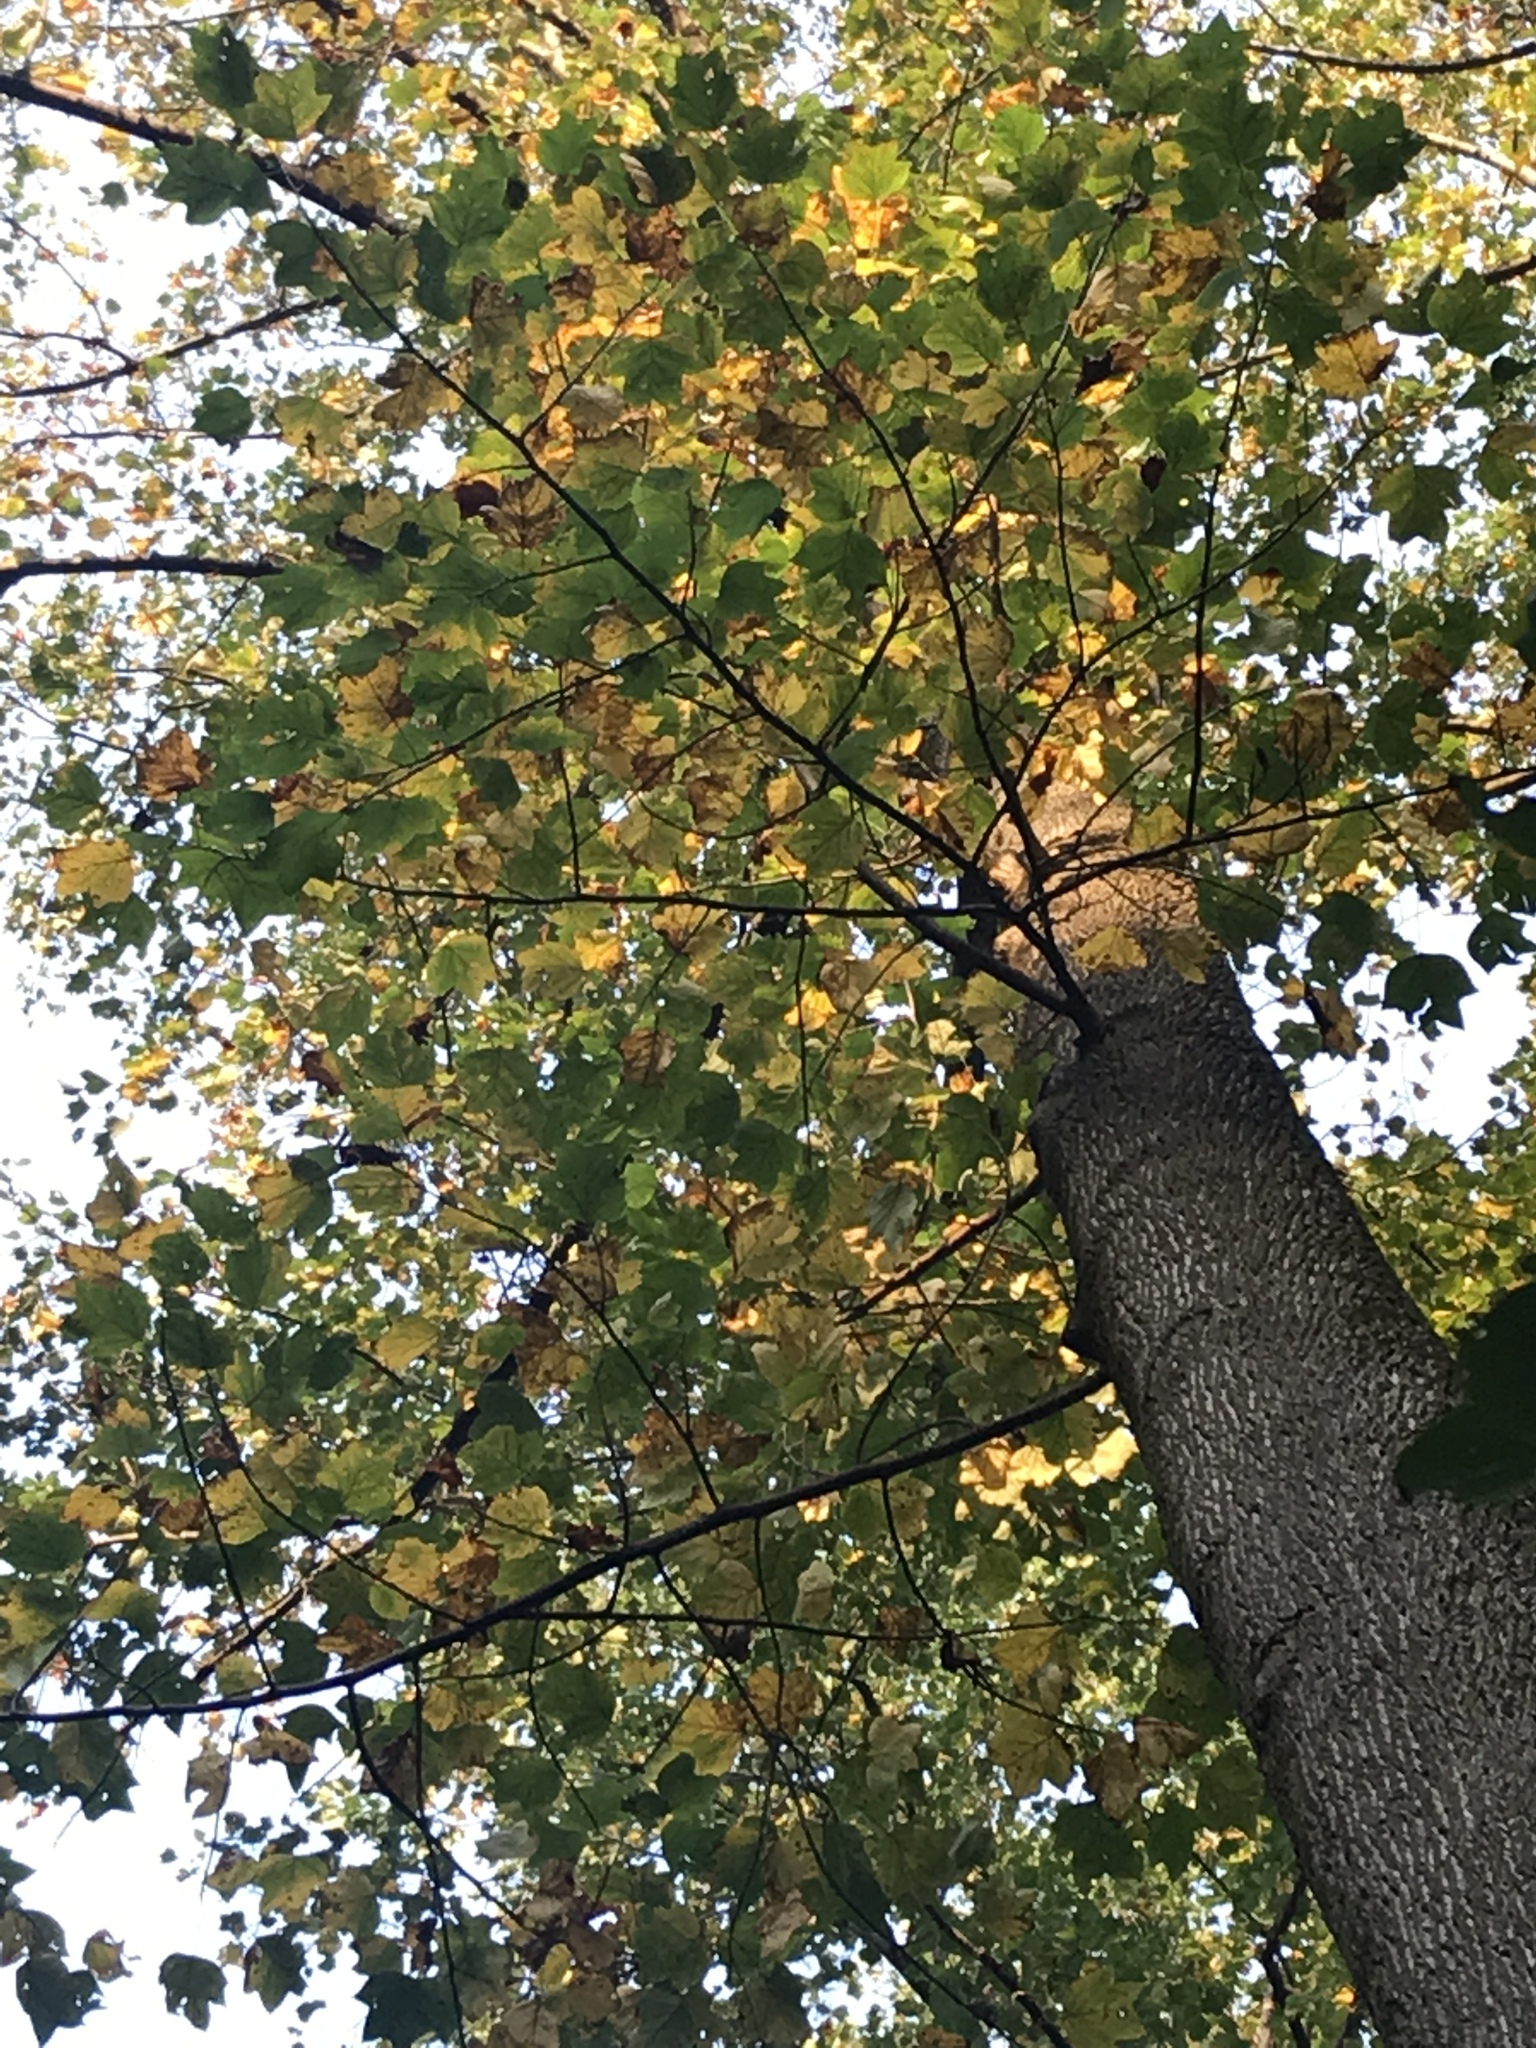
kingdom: Plantae
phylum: Tracheophyta
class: Magnoliopsida
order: Magnoliales
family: Magnoliaceae
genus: Liriodendron
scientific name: Liriodendron tulipifera
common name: Tulip tree
